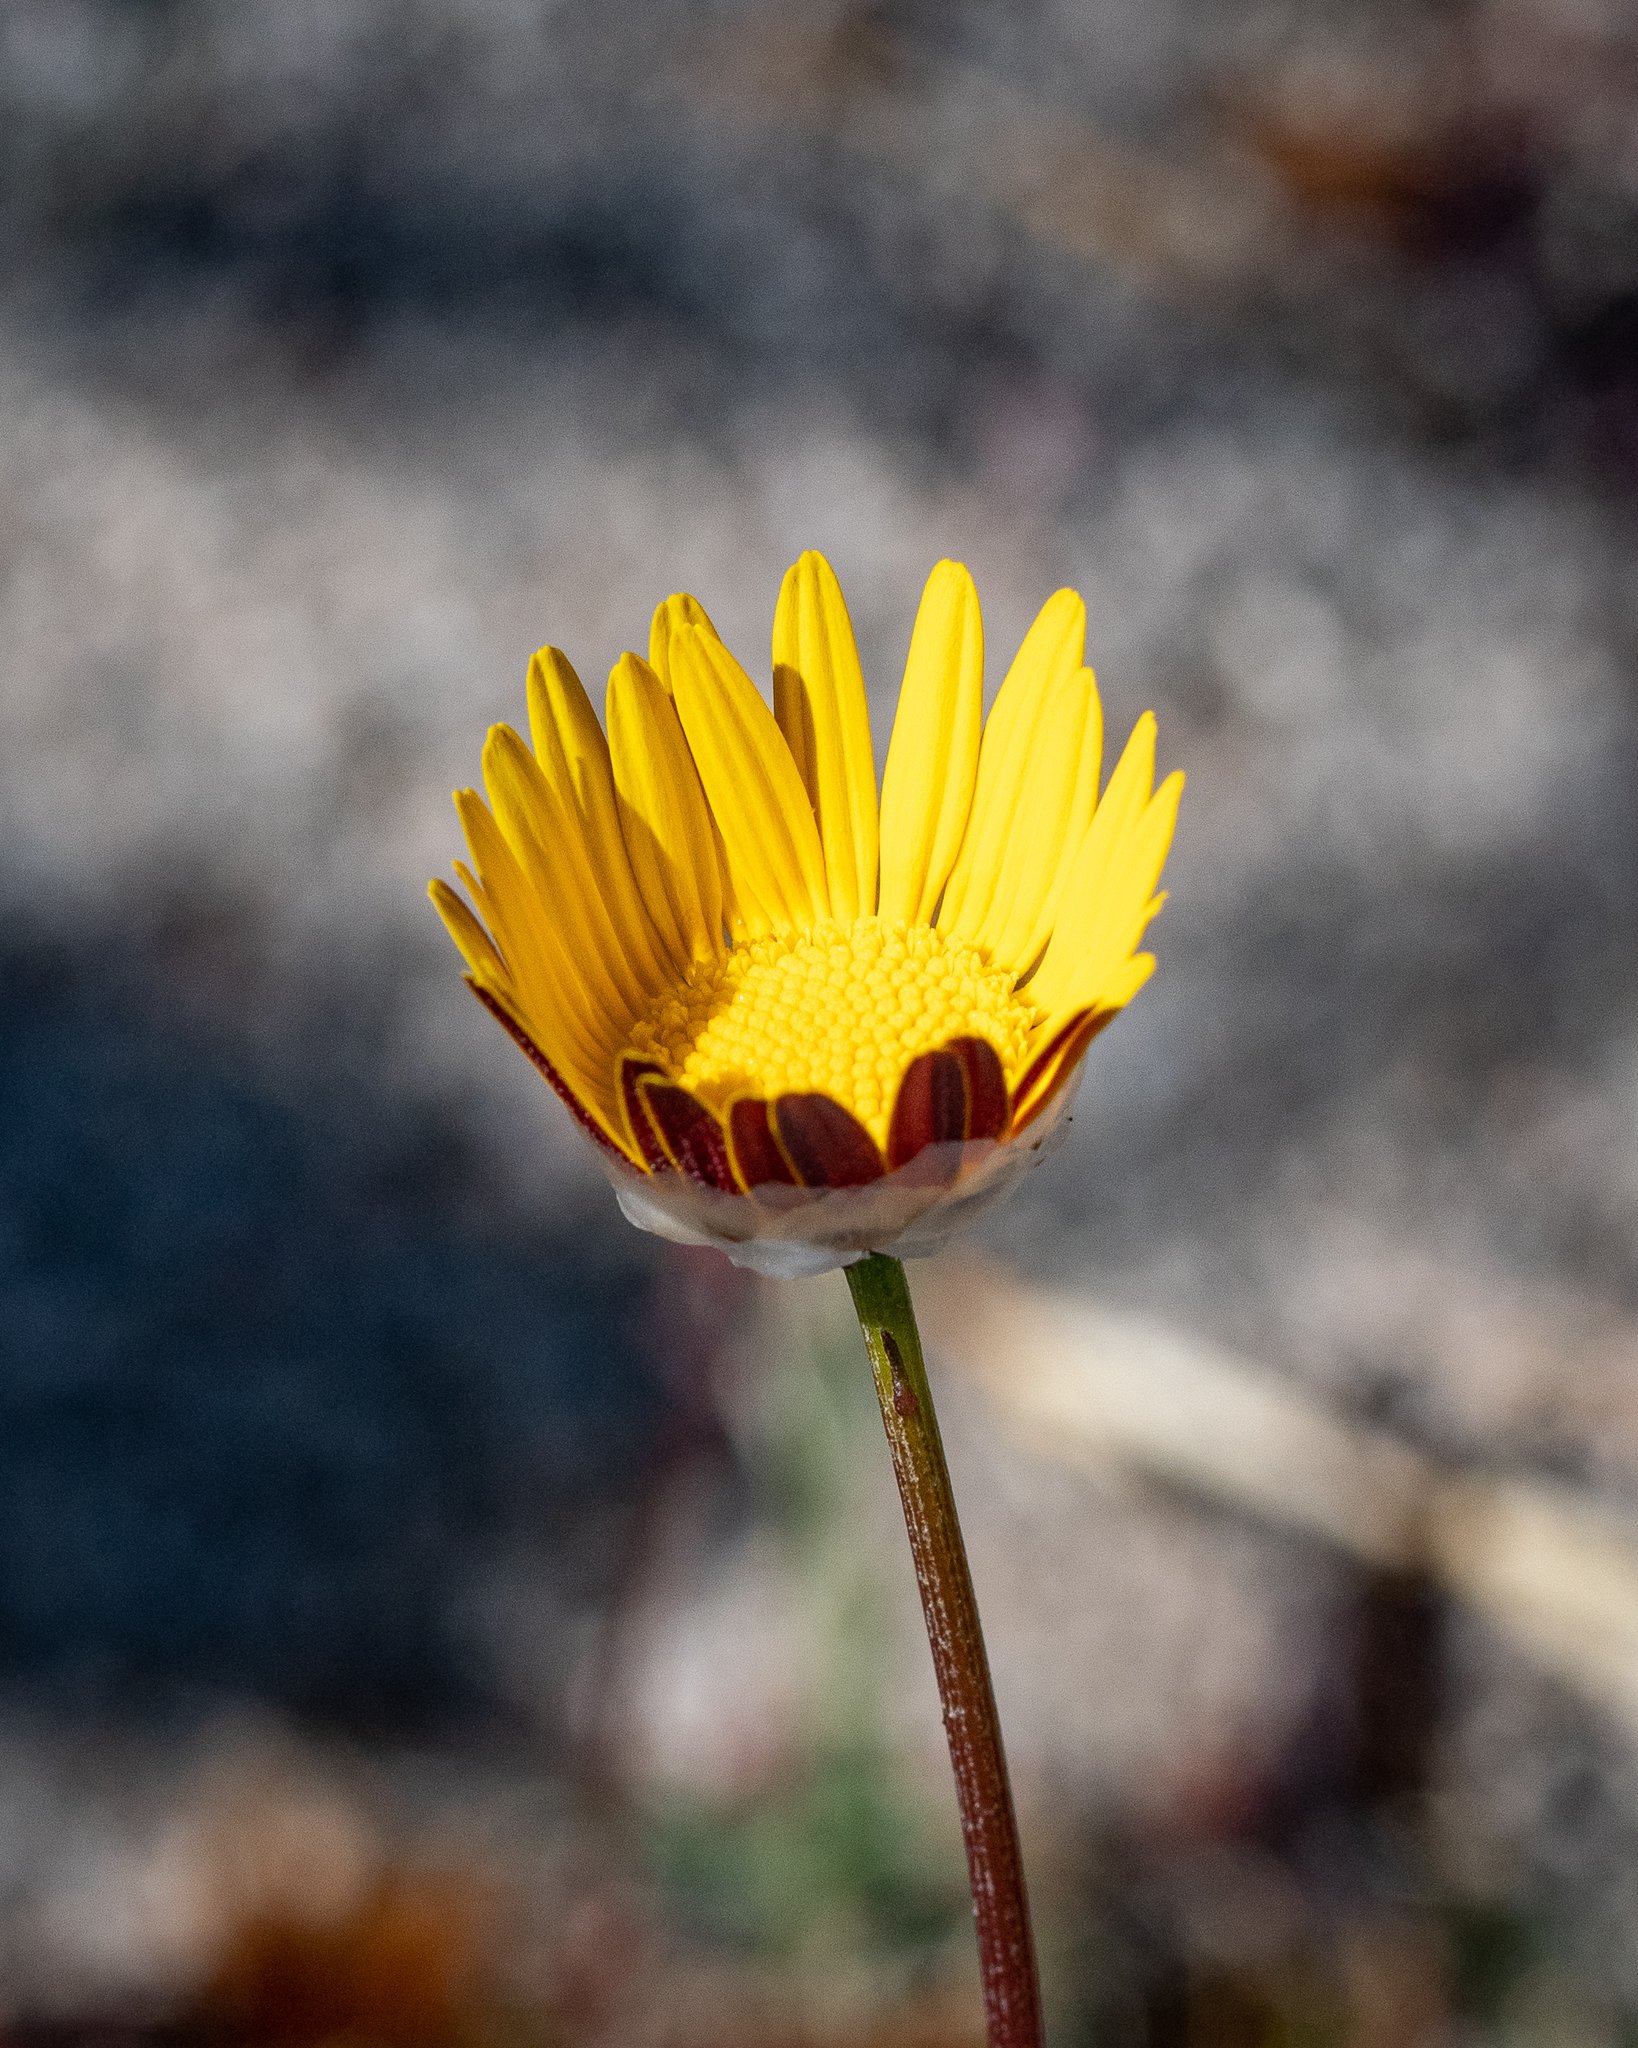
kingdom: Plantae
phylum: Tracheophyta
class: Magnoliopsida
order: Asterales
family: Asteraceae
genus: Ursinia
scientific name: Ursinia paleacea
